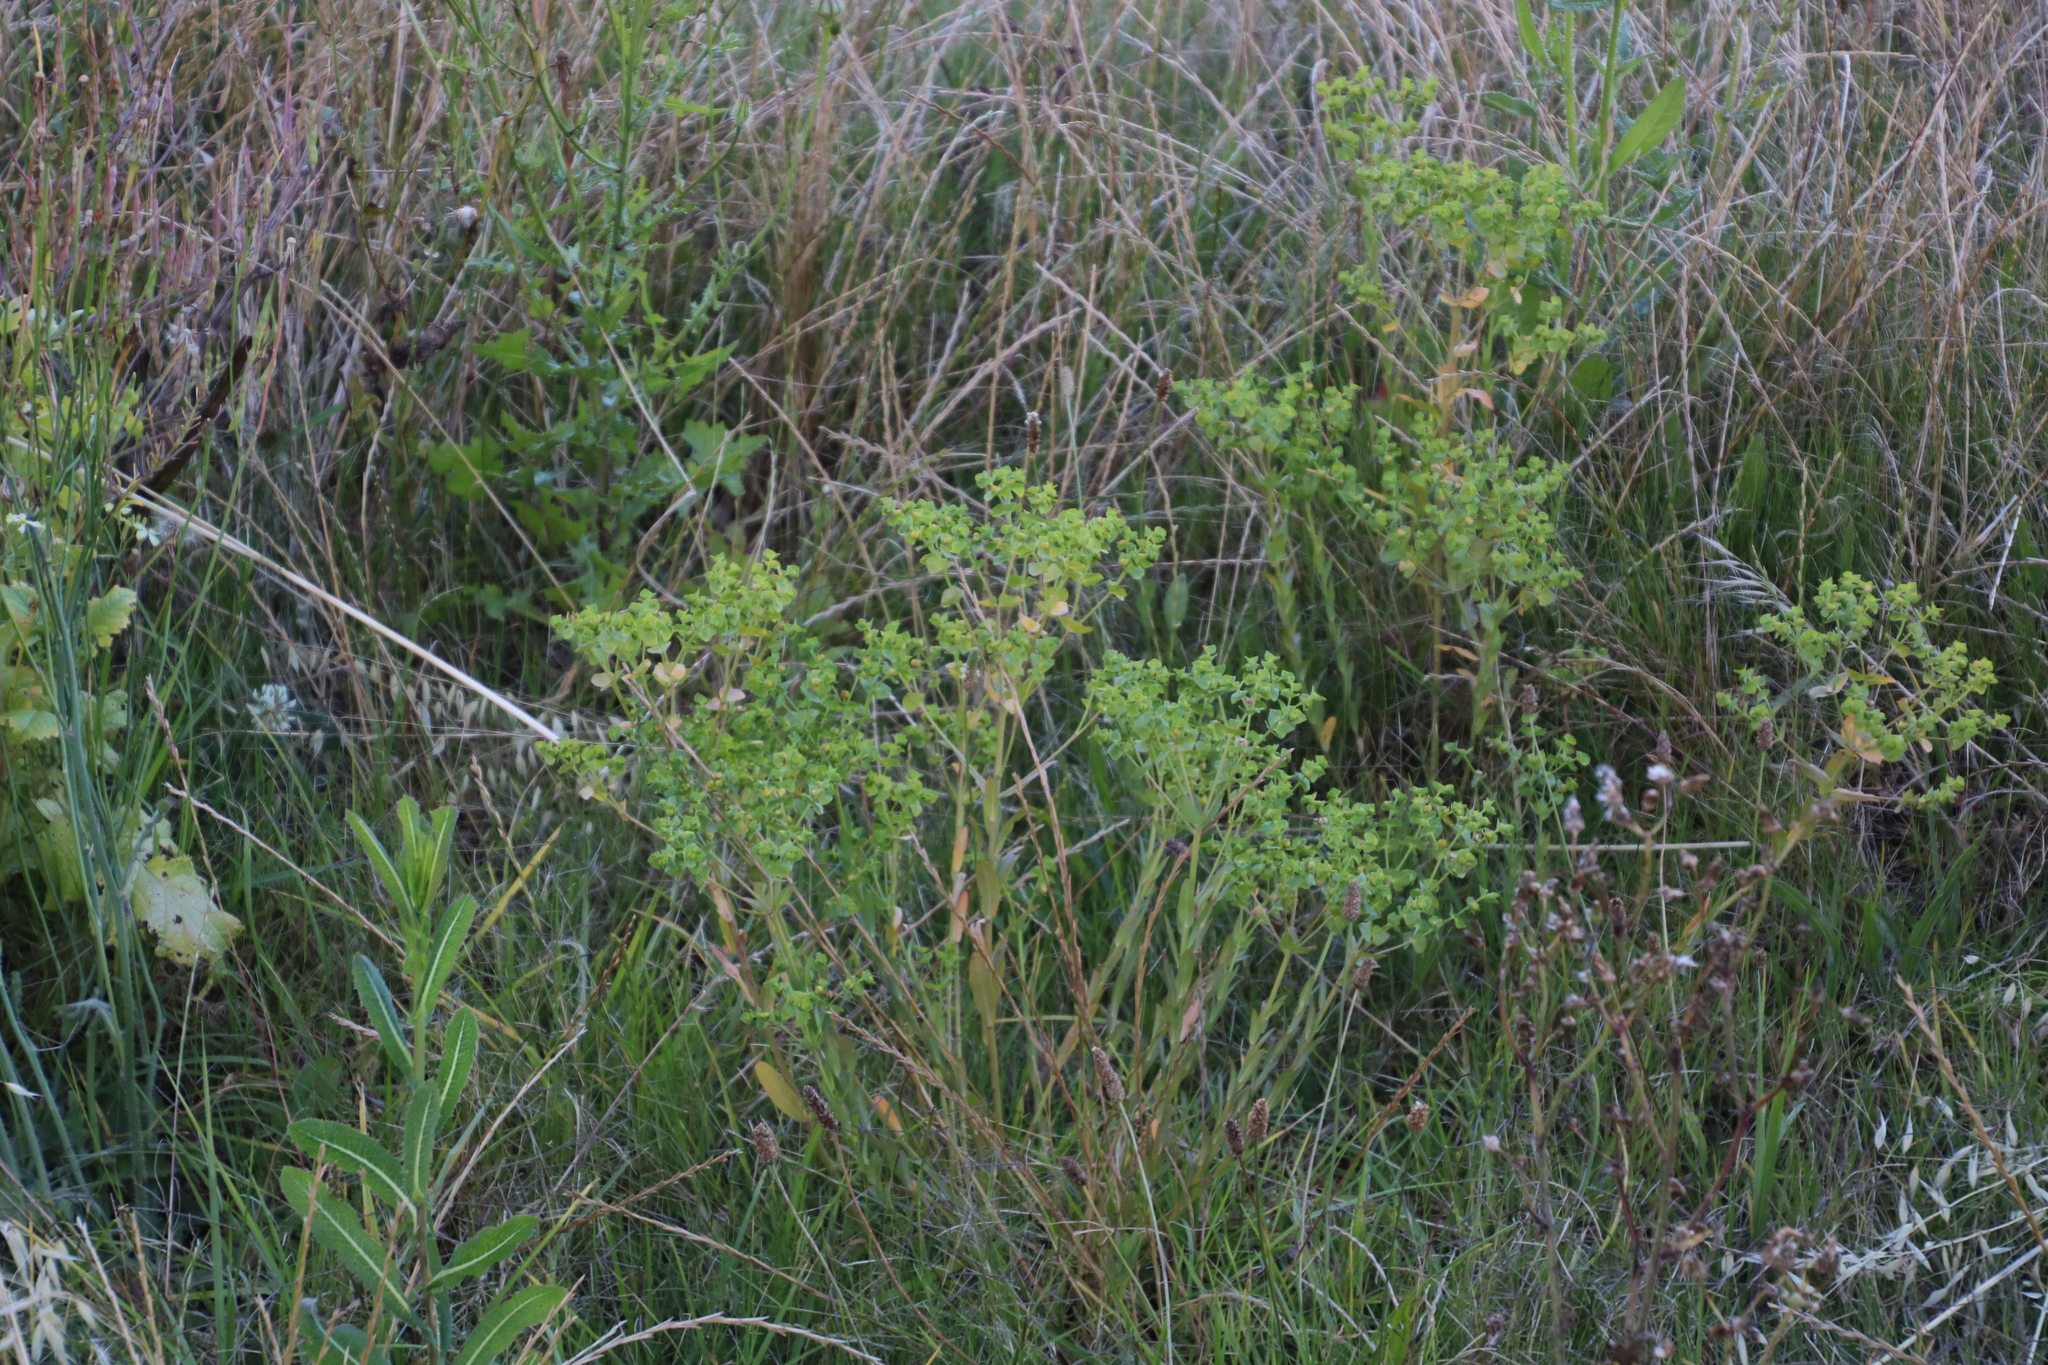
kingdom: Plantae
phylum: Tracheophyta
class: Magnoliopsida
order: Malpighiales
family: Euphorbiaceae
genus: Euphorbia
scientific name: Euphorbia terracina
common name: Geraldton carnation weed
